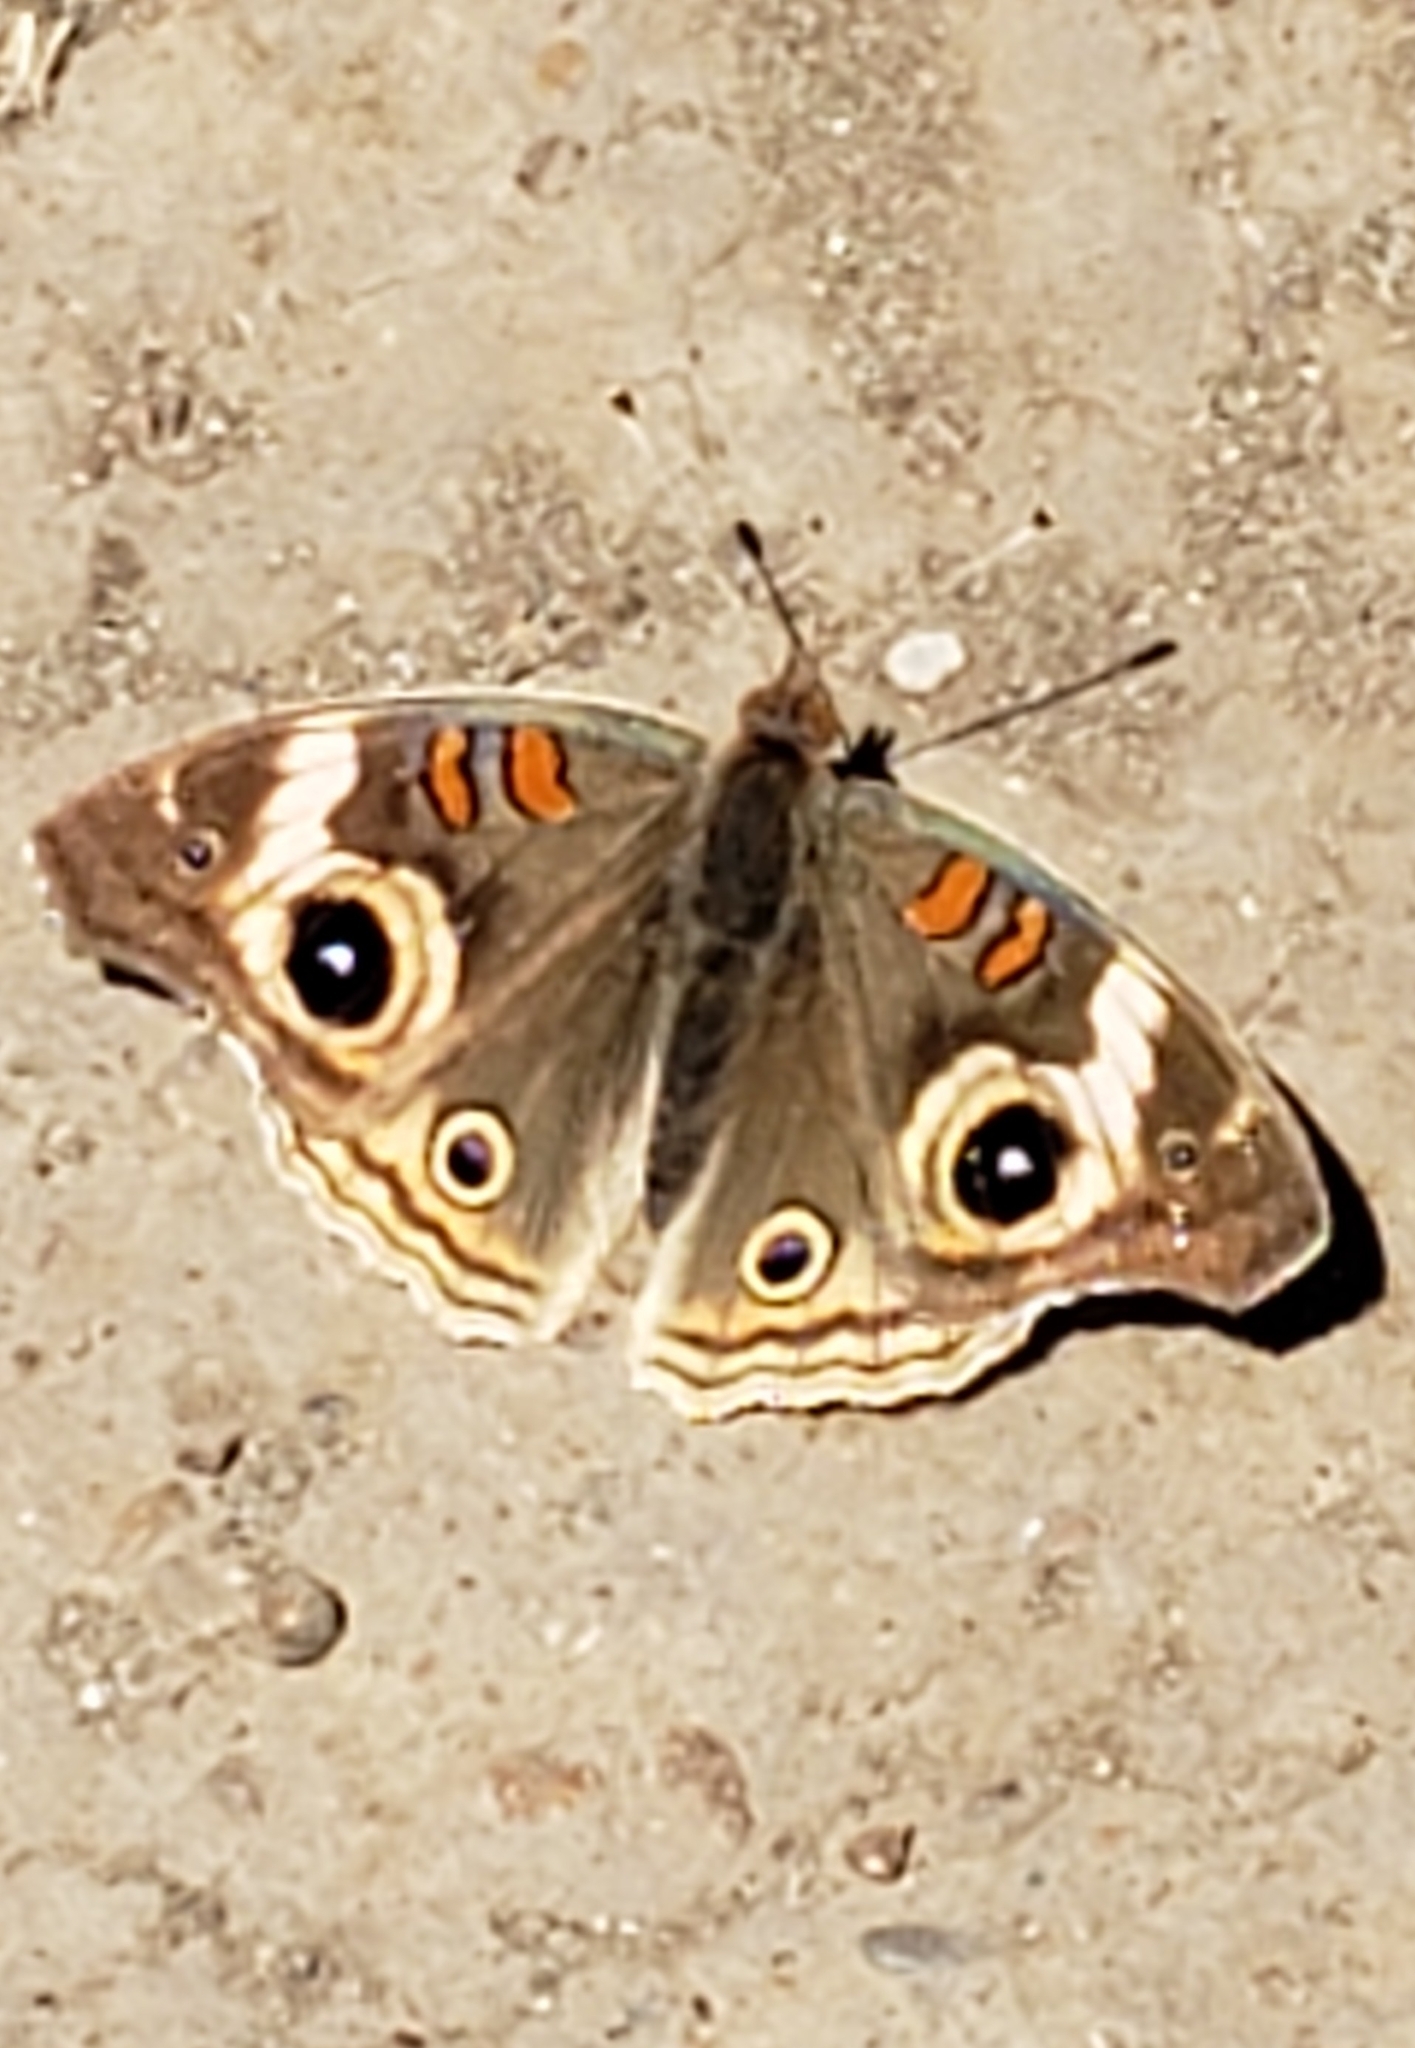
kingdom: Animalia
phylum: Arthropoda
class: Insecta
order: Lepidoptera
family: Nymphalidae
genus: Junonia
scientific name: Junonia grisea
